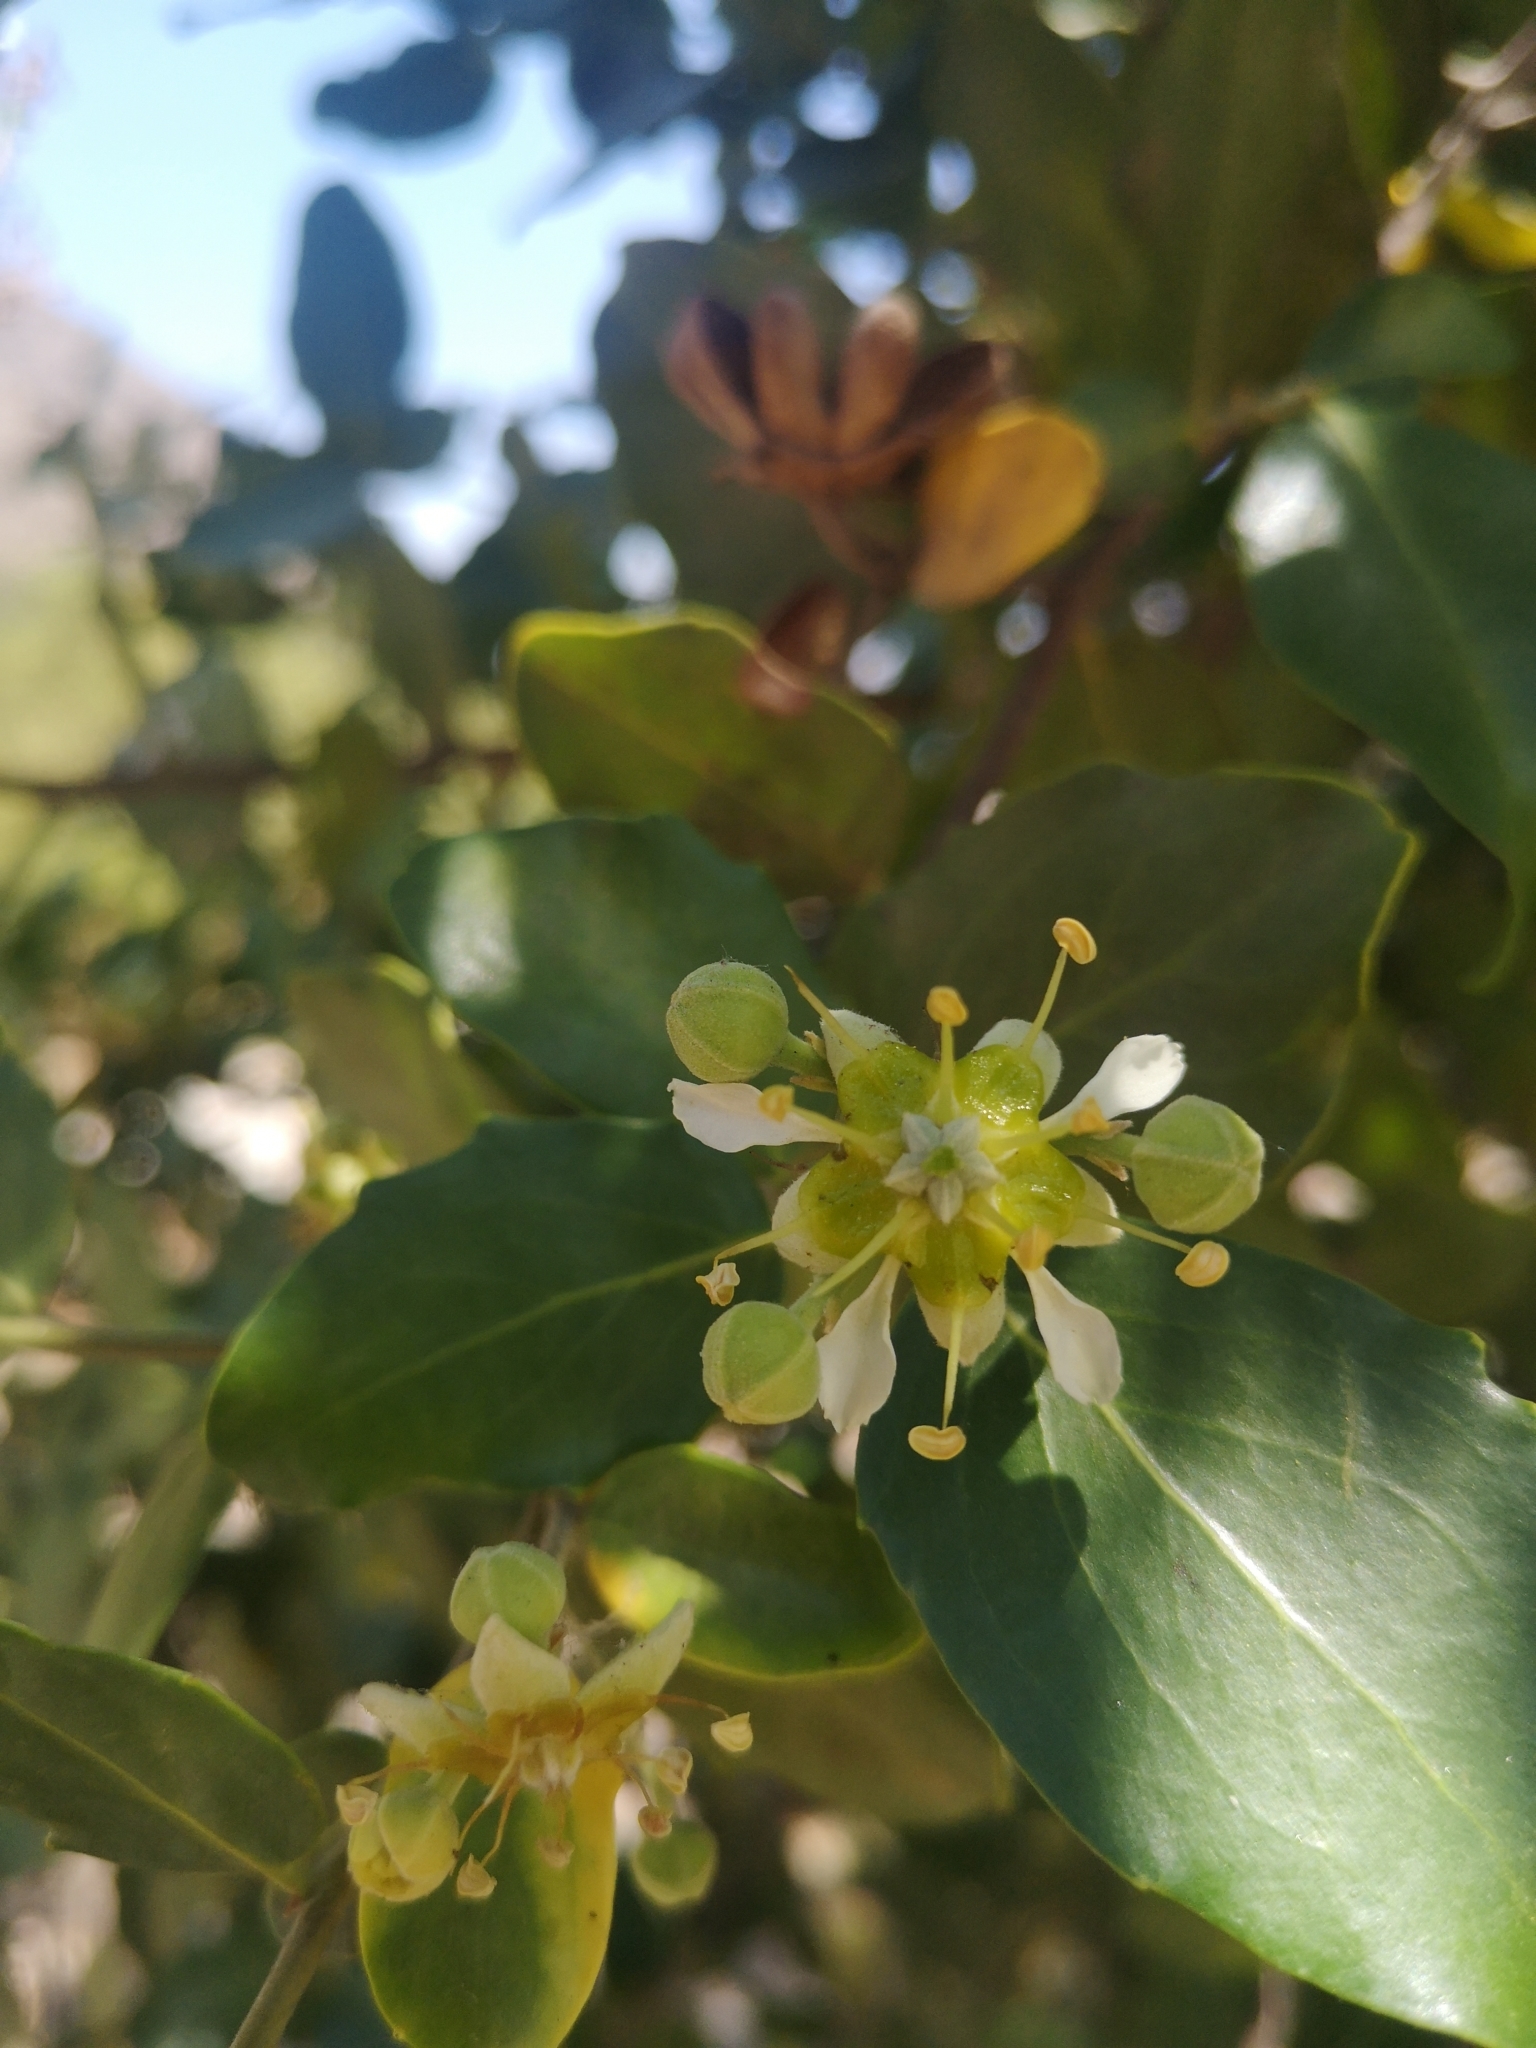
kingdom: Plantae
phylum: Tracheophyta
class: Magnoliopsida
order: Fabales
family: Quillajaceae
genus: Quillaja
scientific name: Quillaja saponaria
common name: Murillo's-bark
